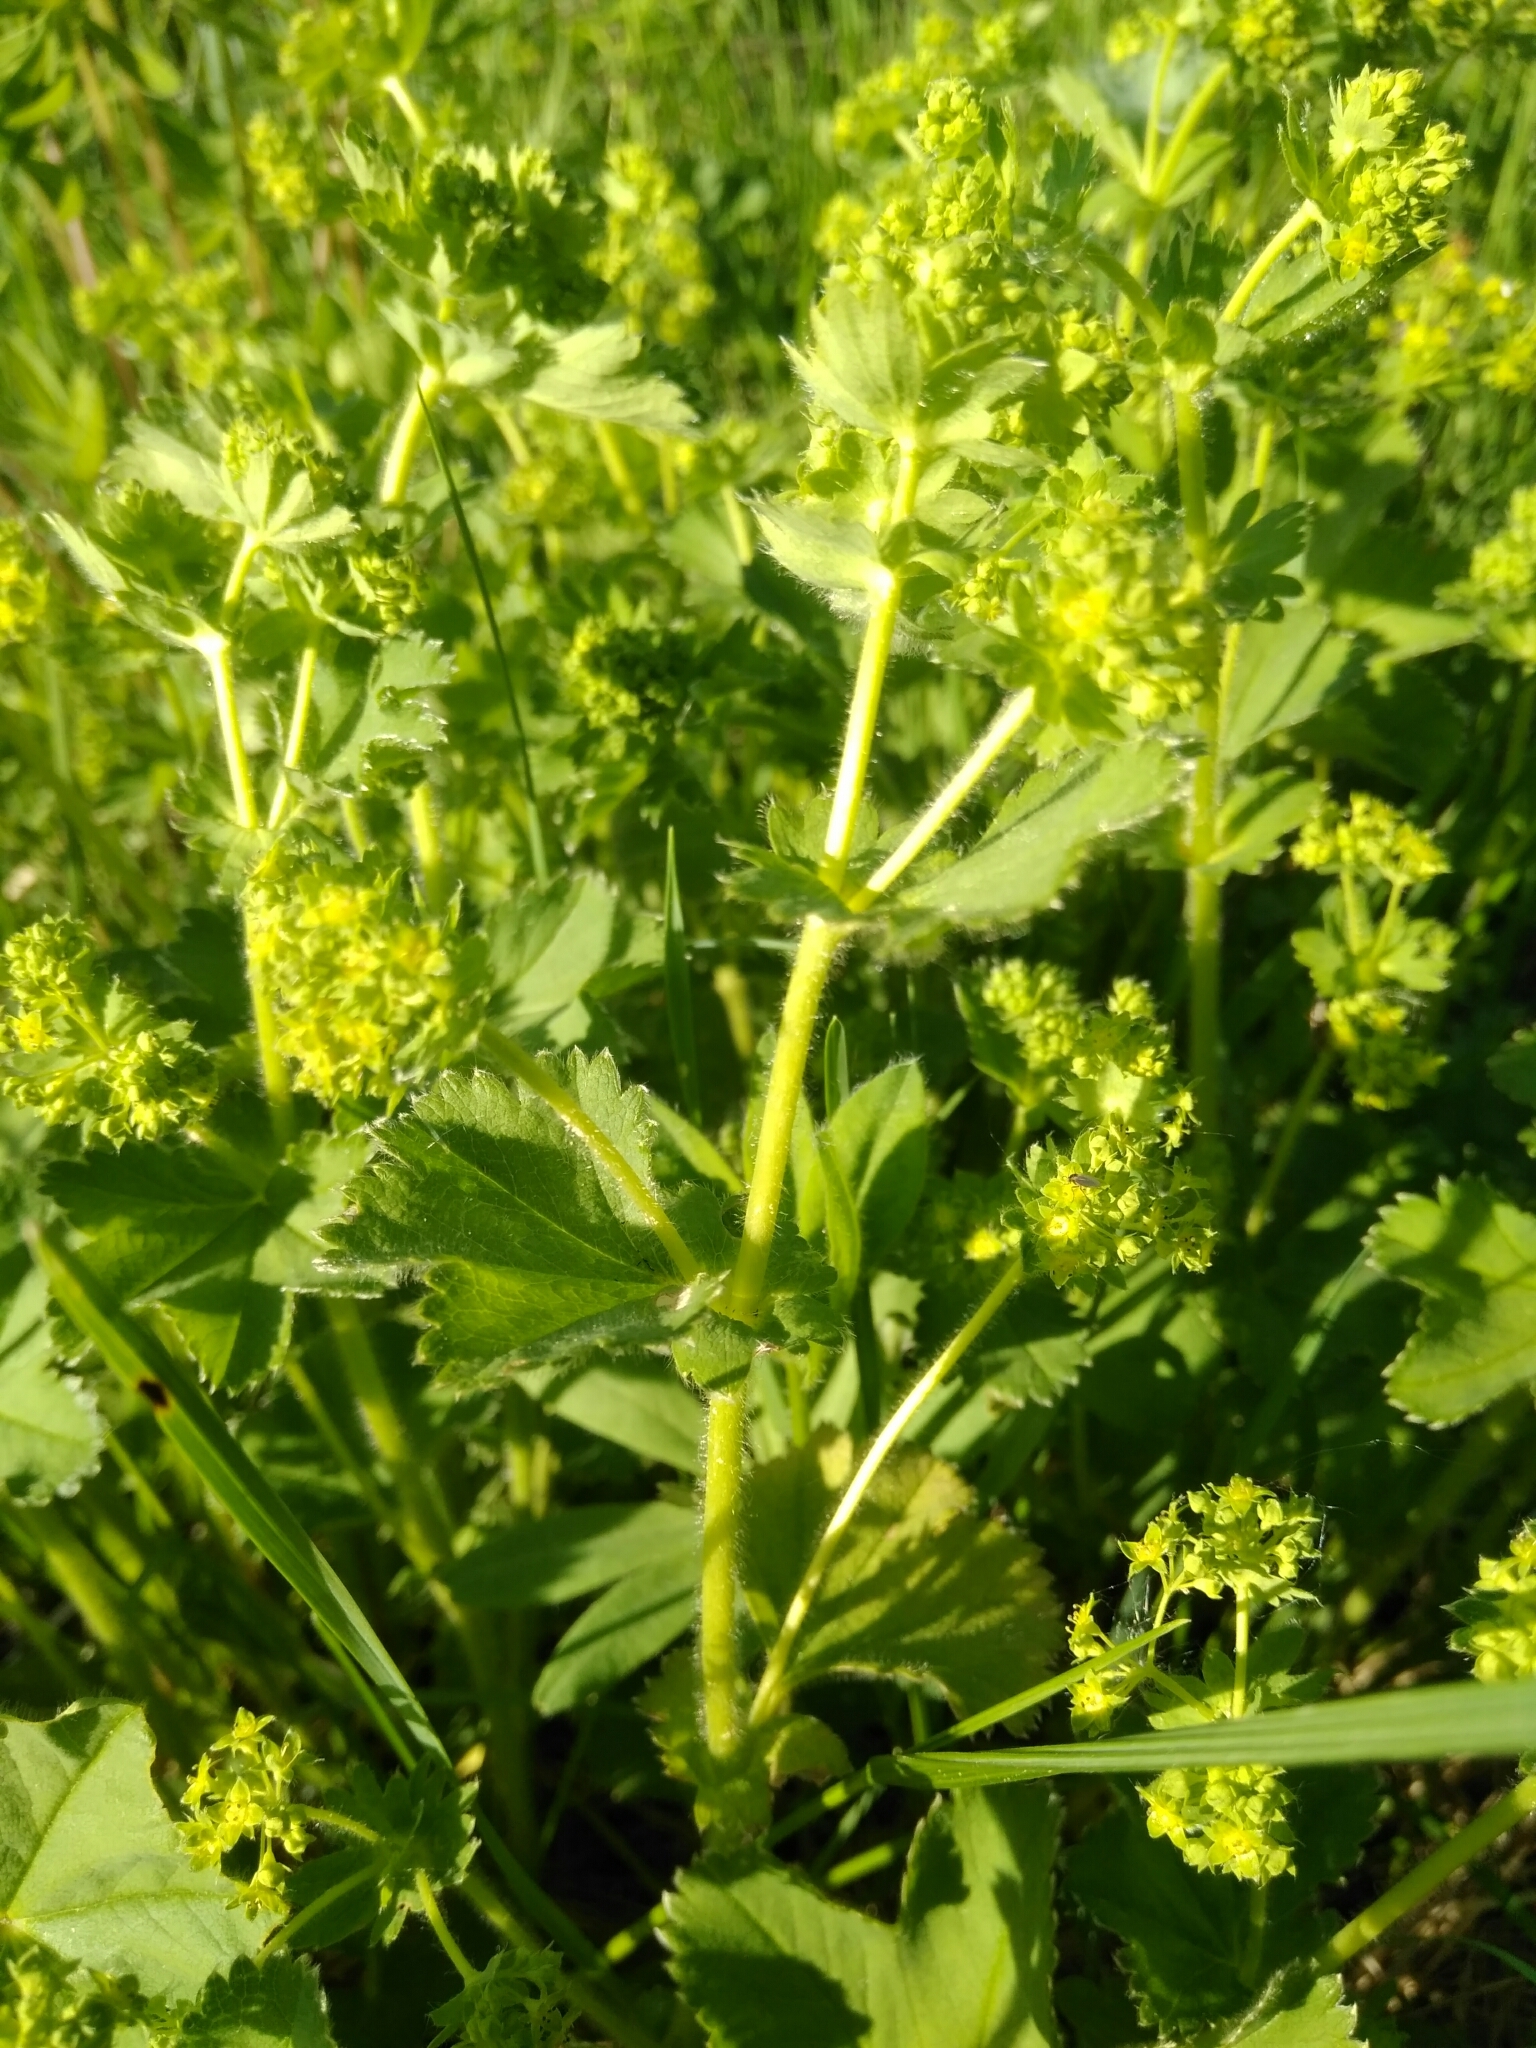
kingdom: Plantae
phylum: Tracheophyta
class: Magnoliopsida
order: Rosales
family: Rosaceae
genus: Alchemilla
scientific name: Alchemilla
